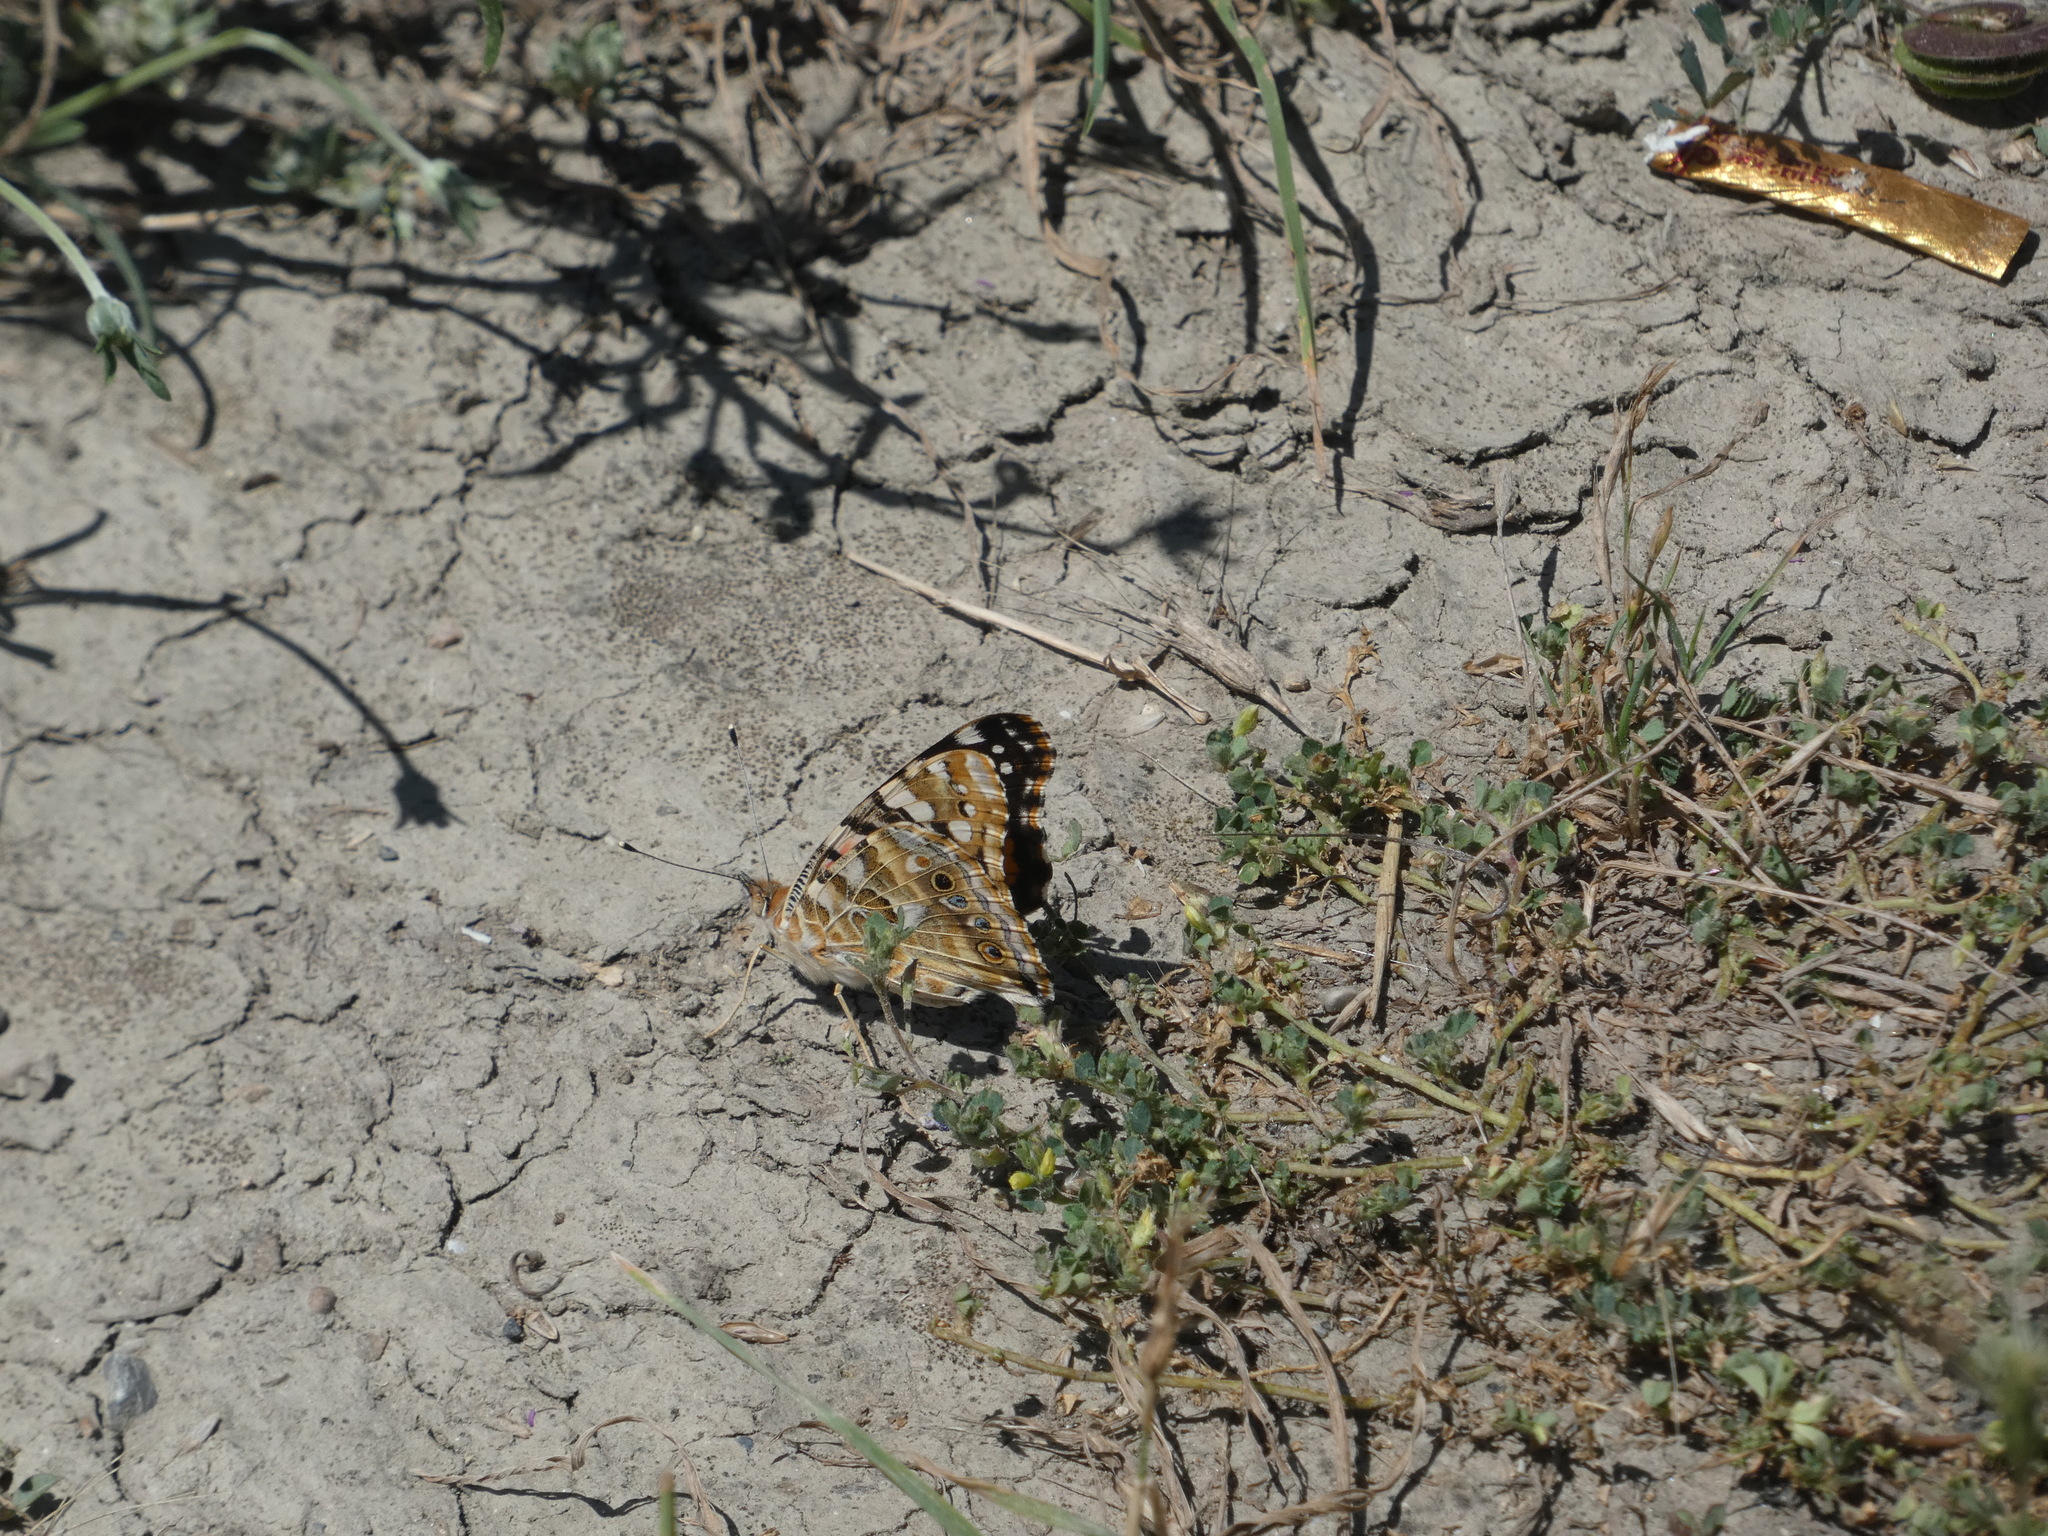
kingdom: Animalia
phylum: Arthropoda
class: Insecta
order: Lepidoptera
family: Nymphalidae
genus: Vanessa
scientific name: Vanessa cardui
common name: Painted lady
